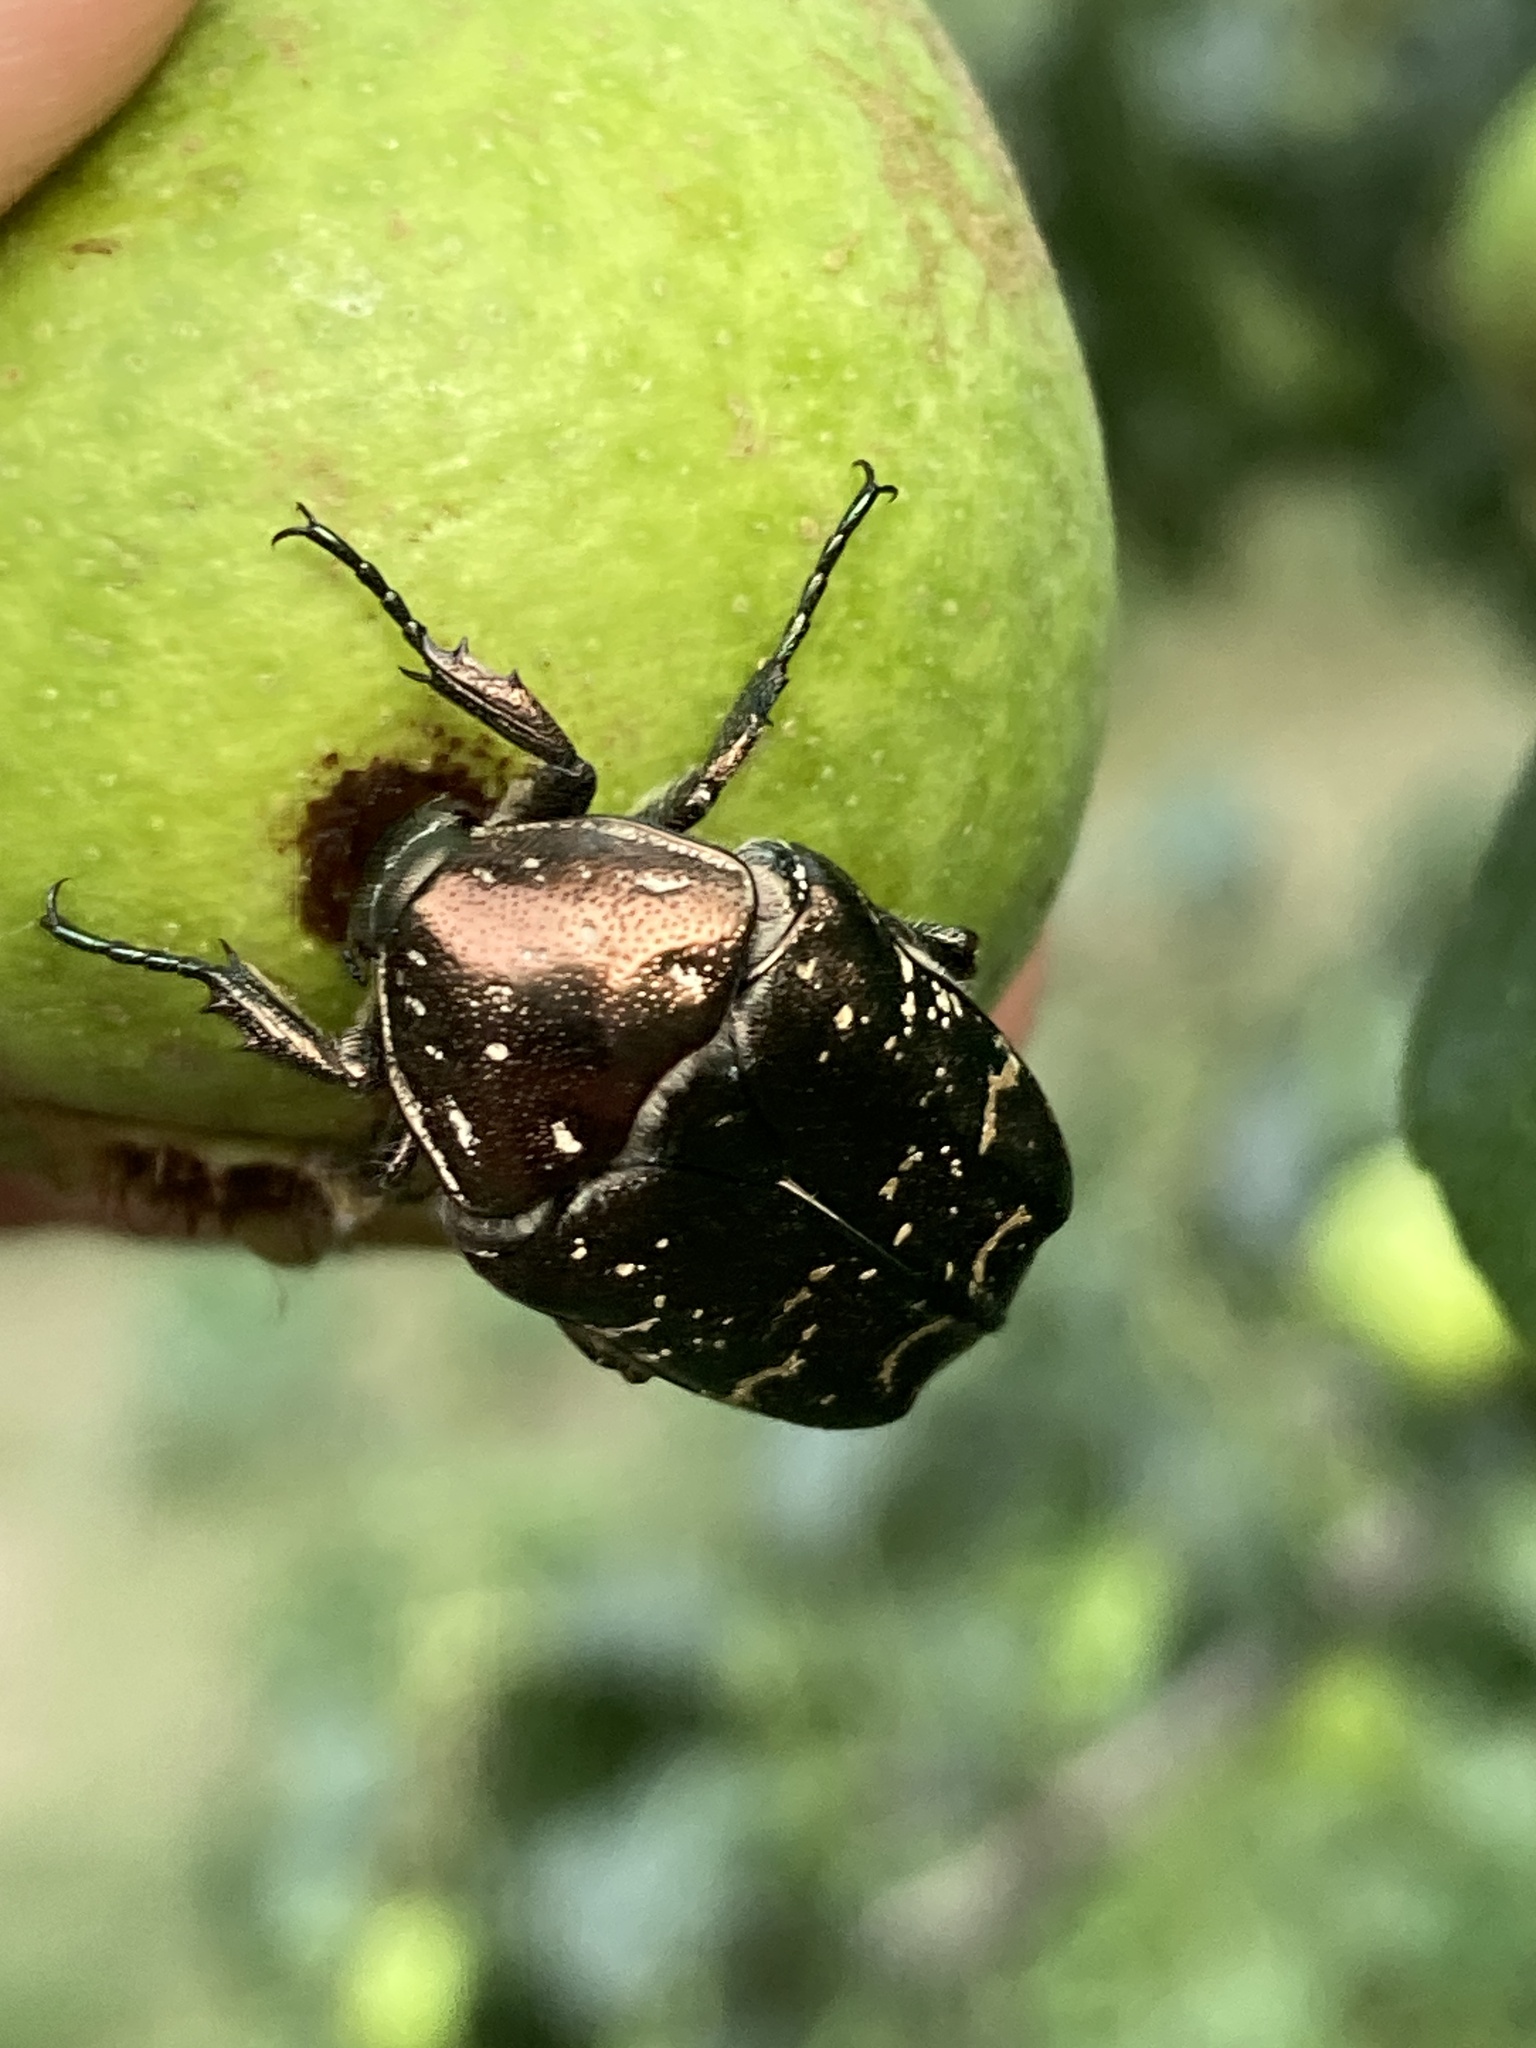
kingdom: Animalia
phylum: Arthropoda
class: Insecta
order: Coleoptera
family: Scarabaeidae
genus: Protaetia
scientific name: Protaetia cuprea
